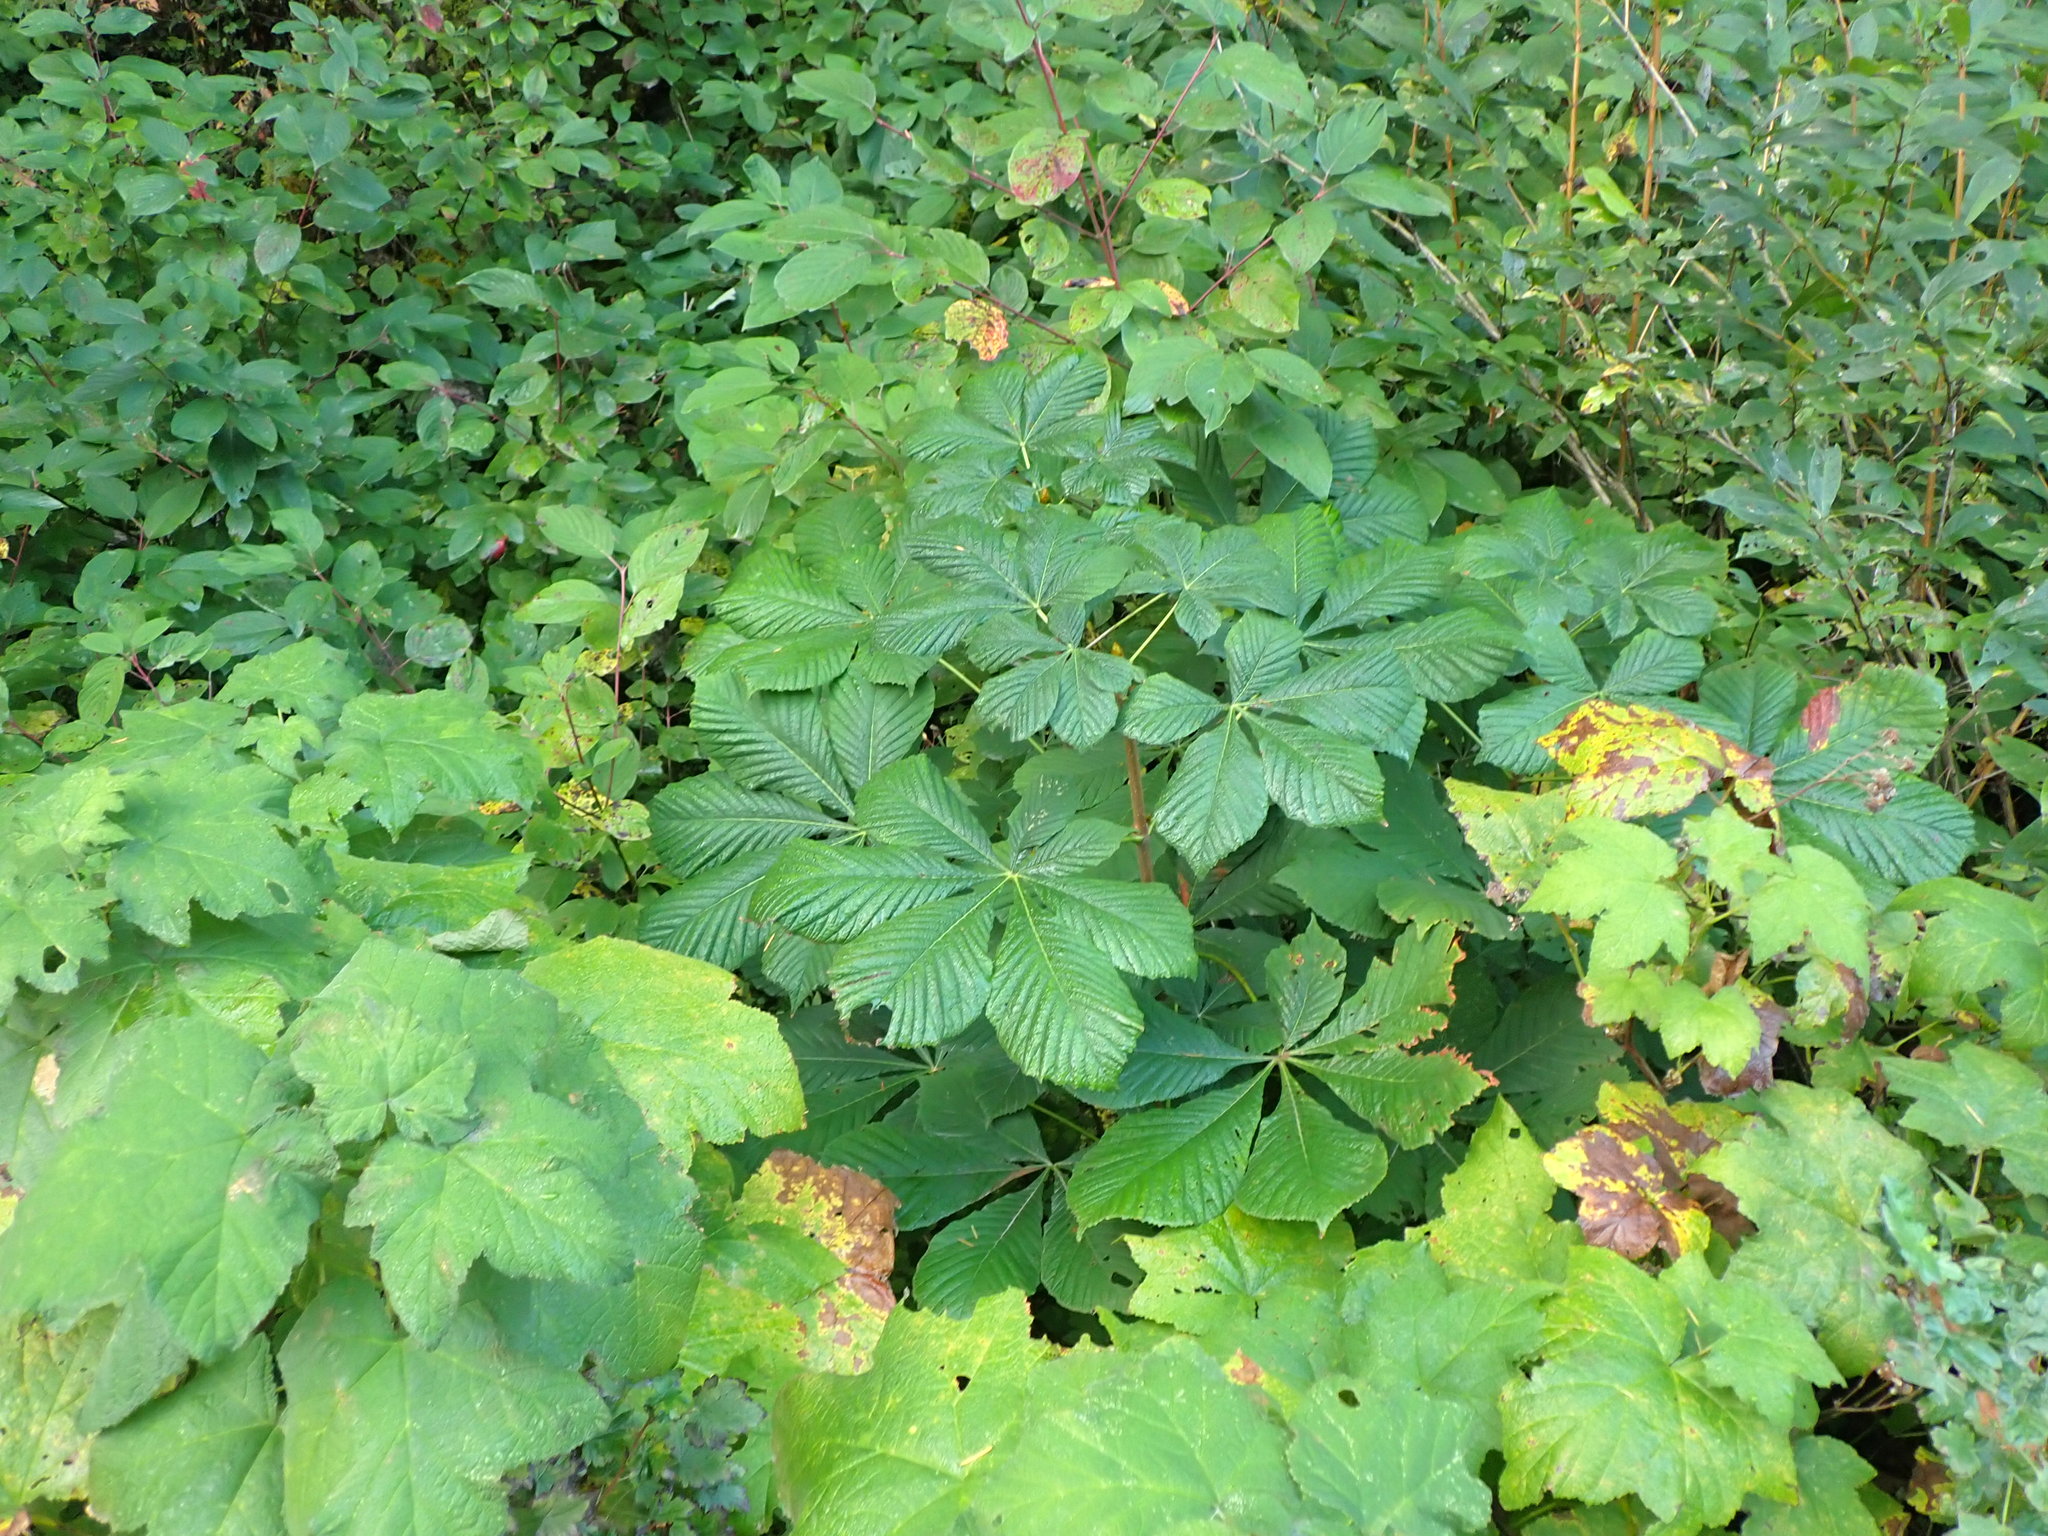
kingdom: Plantae
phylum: Tracheophyta
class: Magnoliopsida
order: Sapindales
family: Sapindaceae
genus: Aesculus
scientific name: Aesculus hippocastanum
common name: Horse-chestnut
